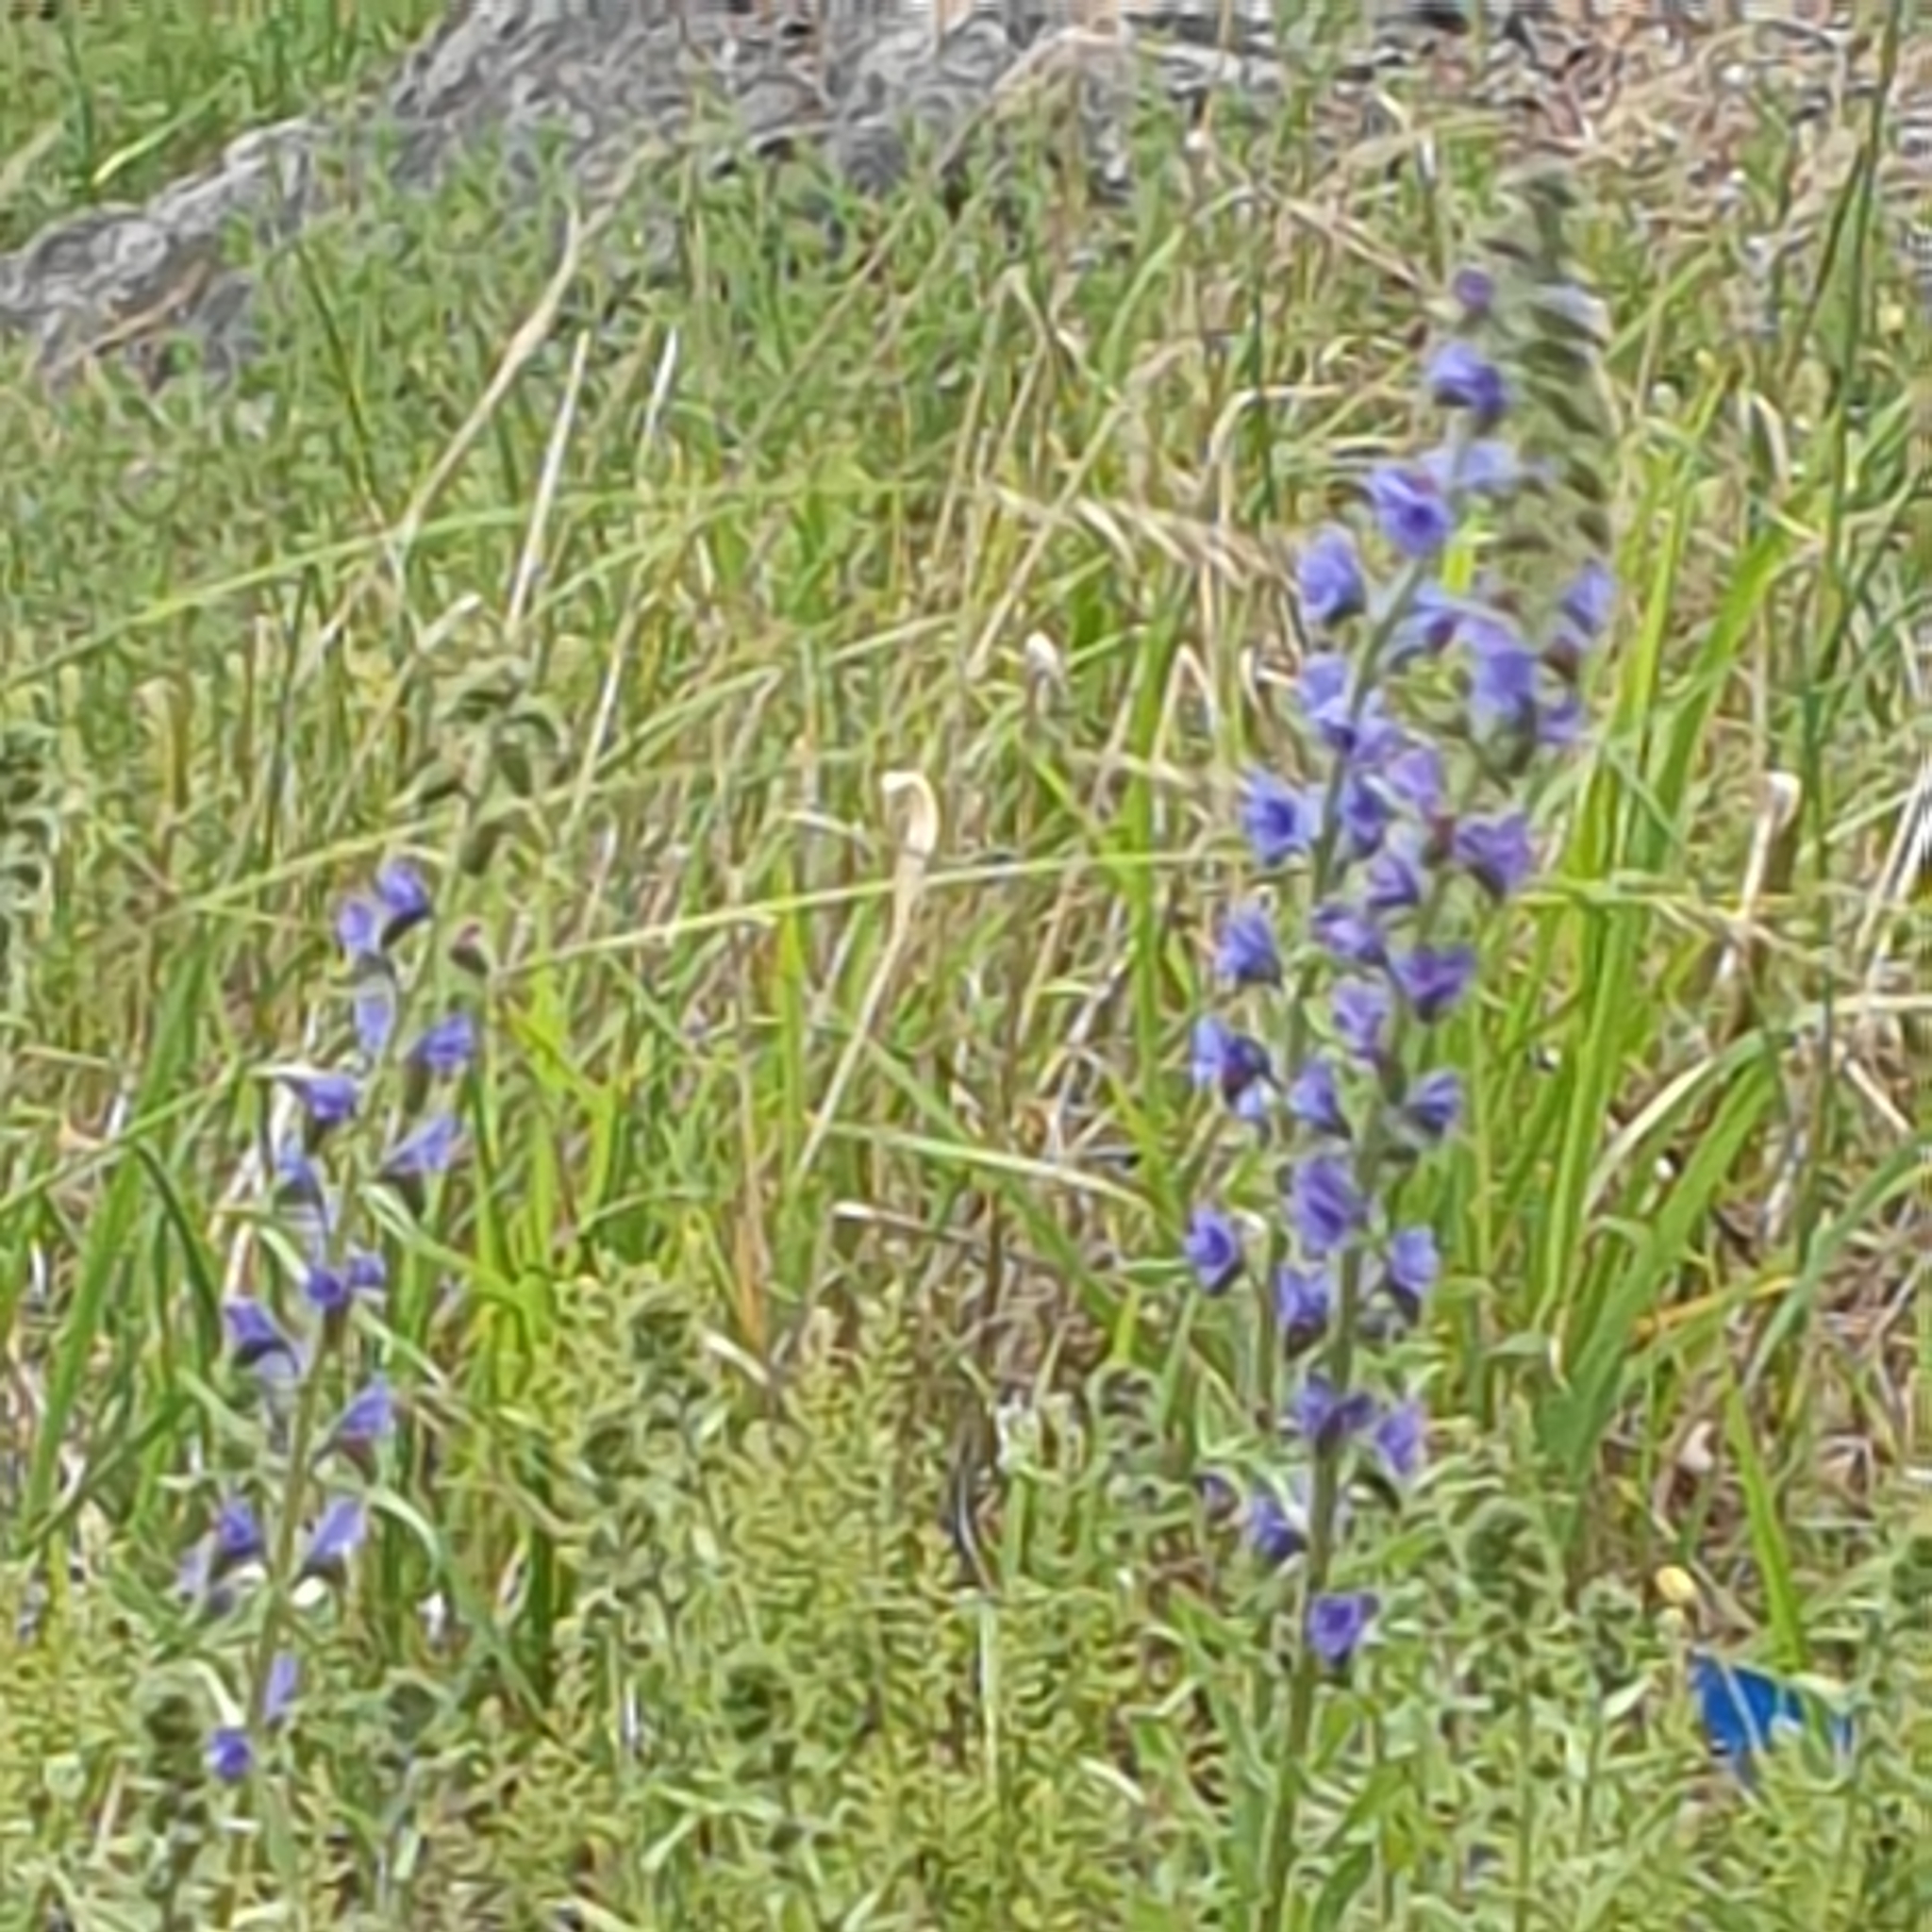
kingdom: Plantae
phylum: Tracheophyta
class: Magnoliopsida
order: Boraginales
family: Boraginaceae
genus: Echium
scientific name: Echium vulgare
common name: Common viper's bugloss
